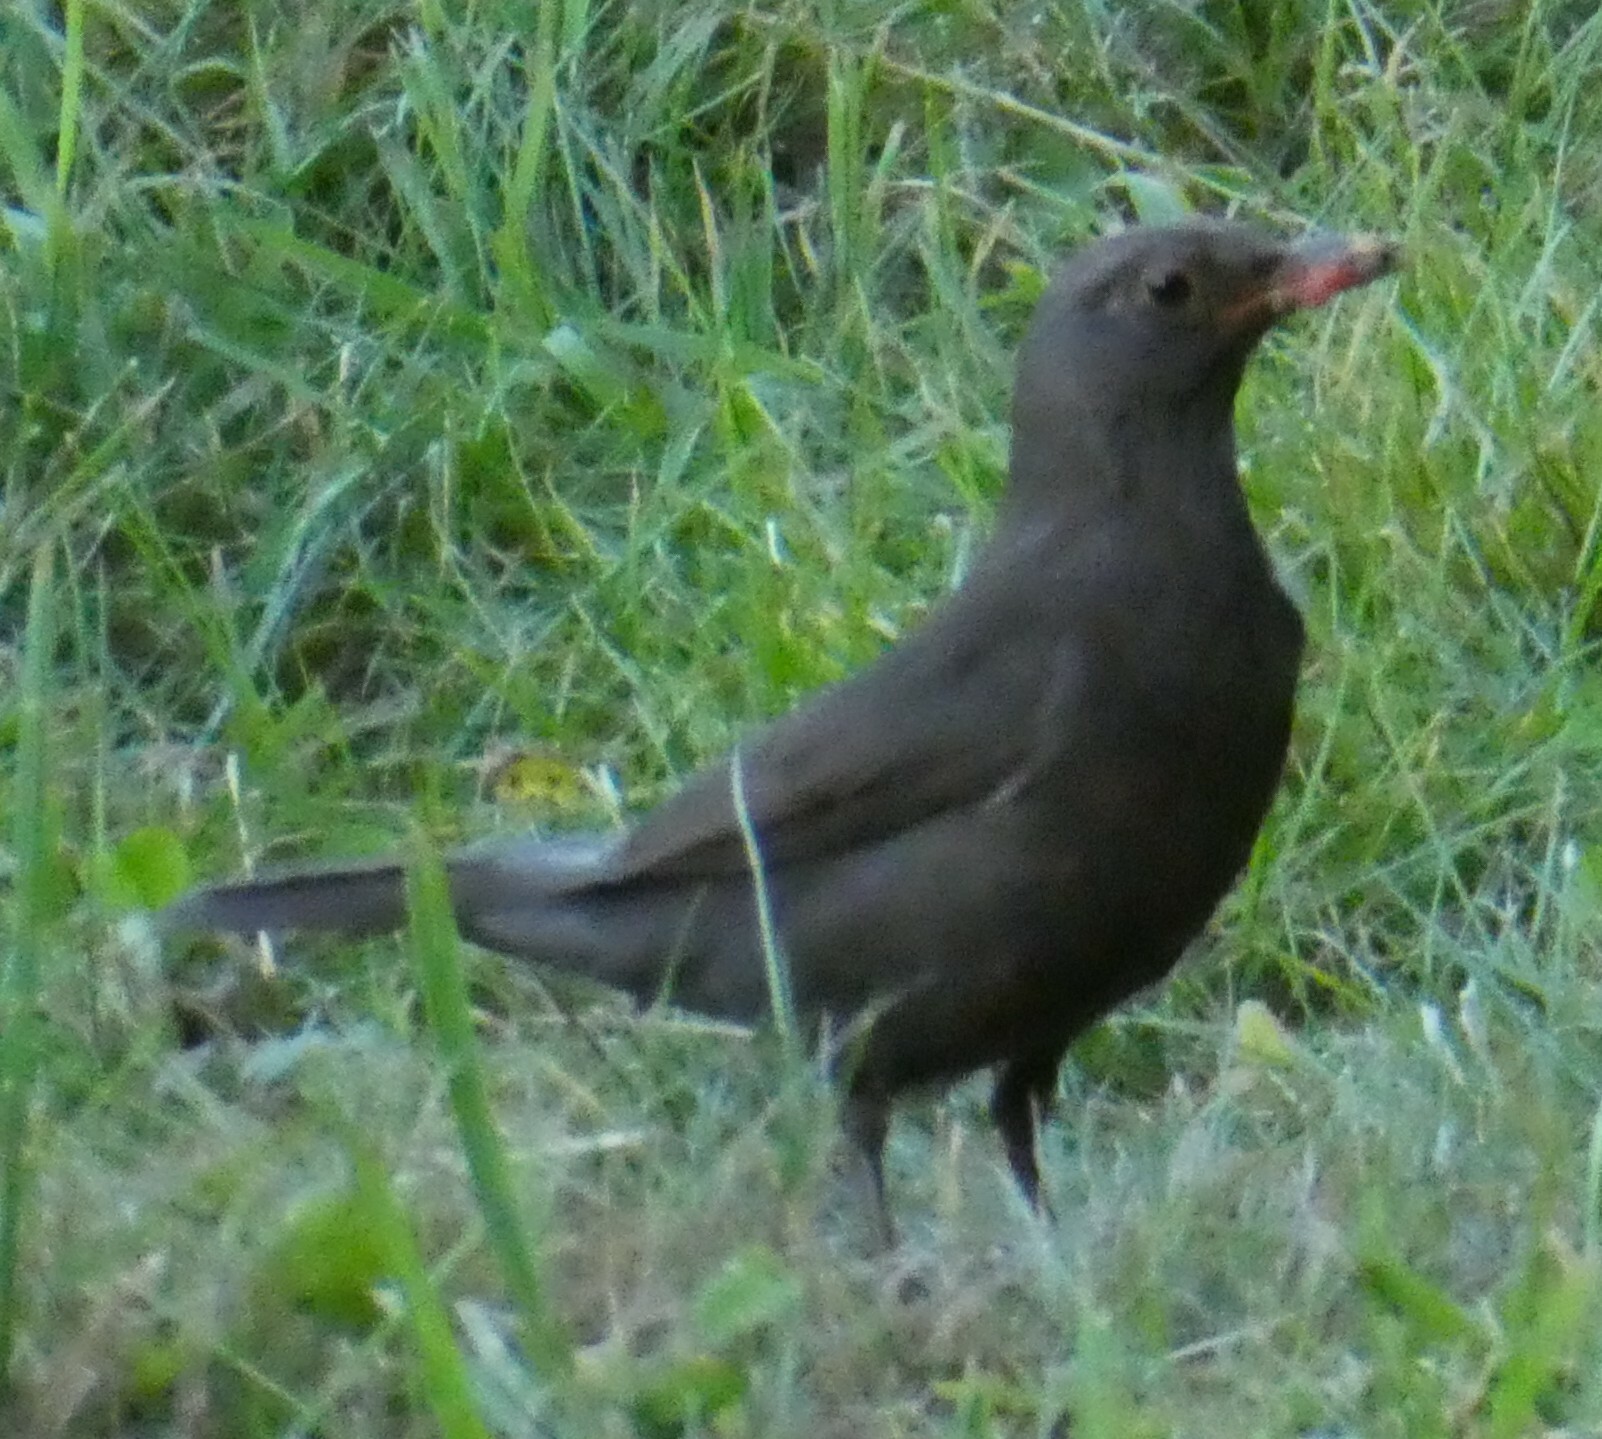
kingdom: Animalia
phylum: Chordata
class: Aves
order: Passeriformes
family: Turdidae
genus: Turdus
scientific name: Turdus merula
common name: Common blackbird
